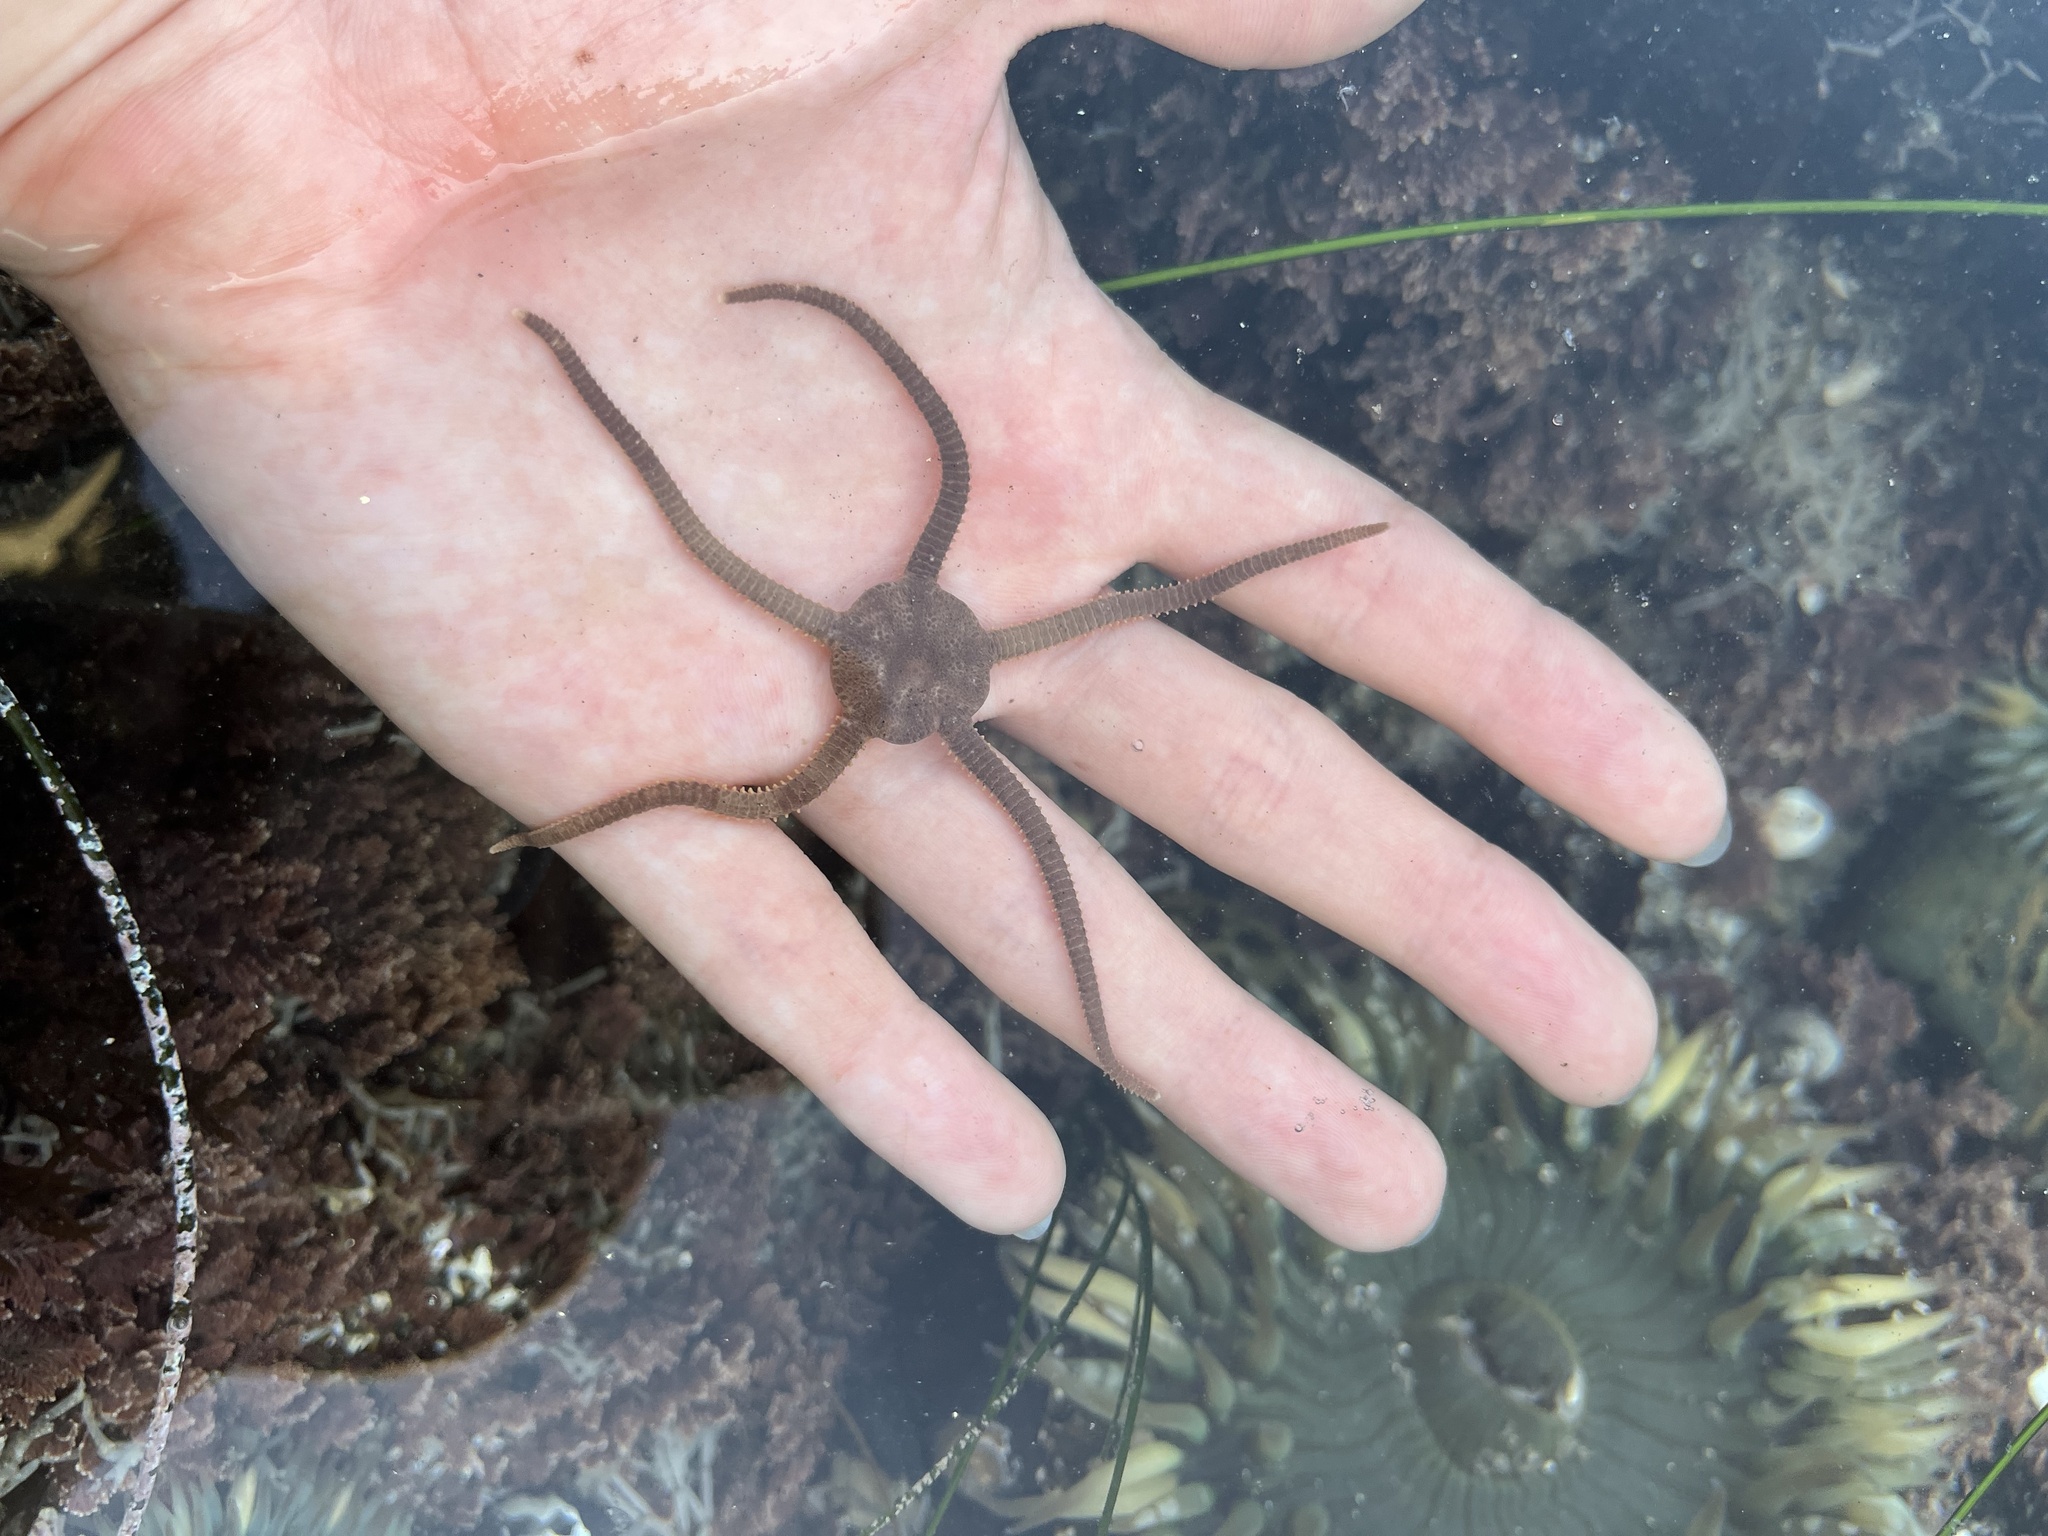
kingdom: Animalia
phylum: Echinodermata
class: Ophiuroidea
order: Amphilepidida
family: Hemieuryalidae
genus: Ophioplocus
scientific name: Ophioplocus esmarki
